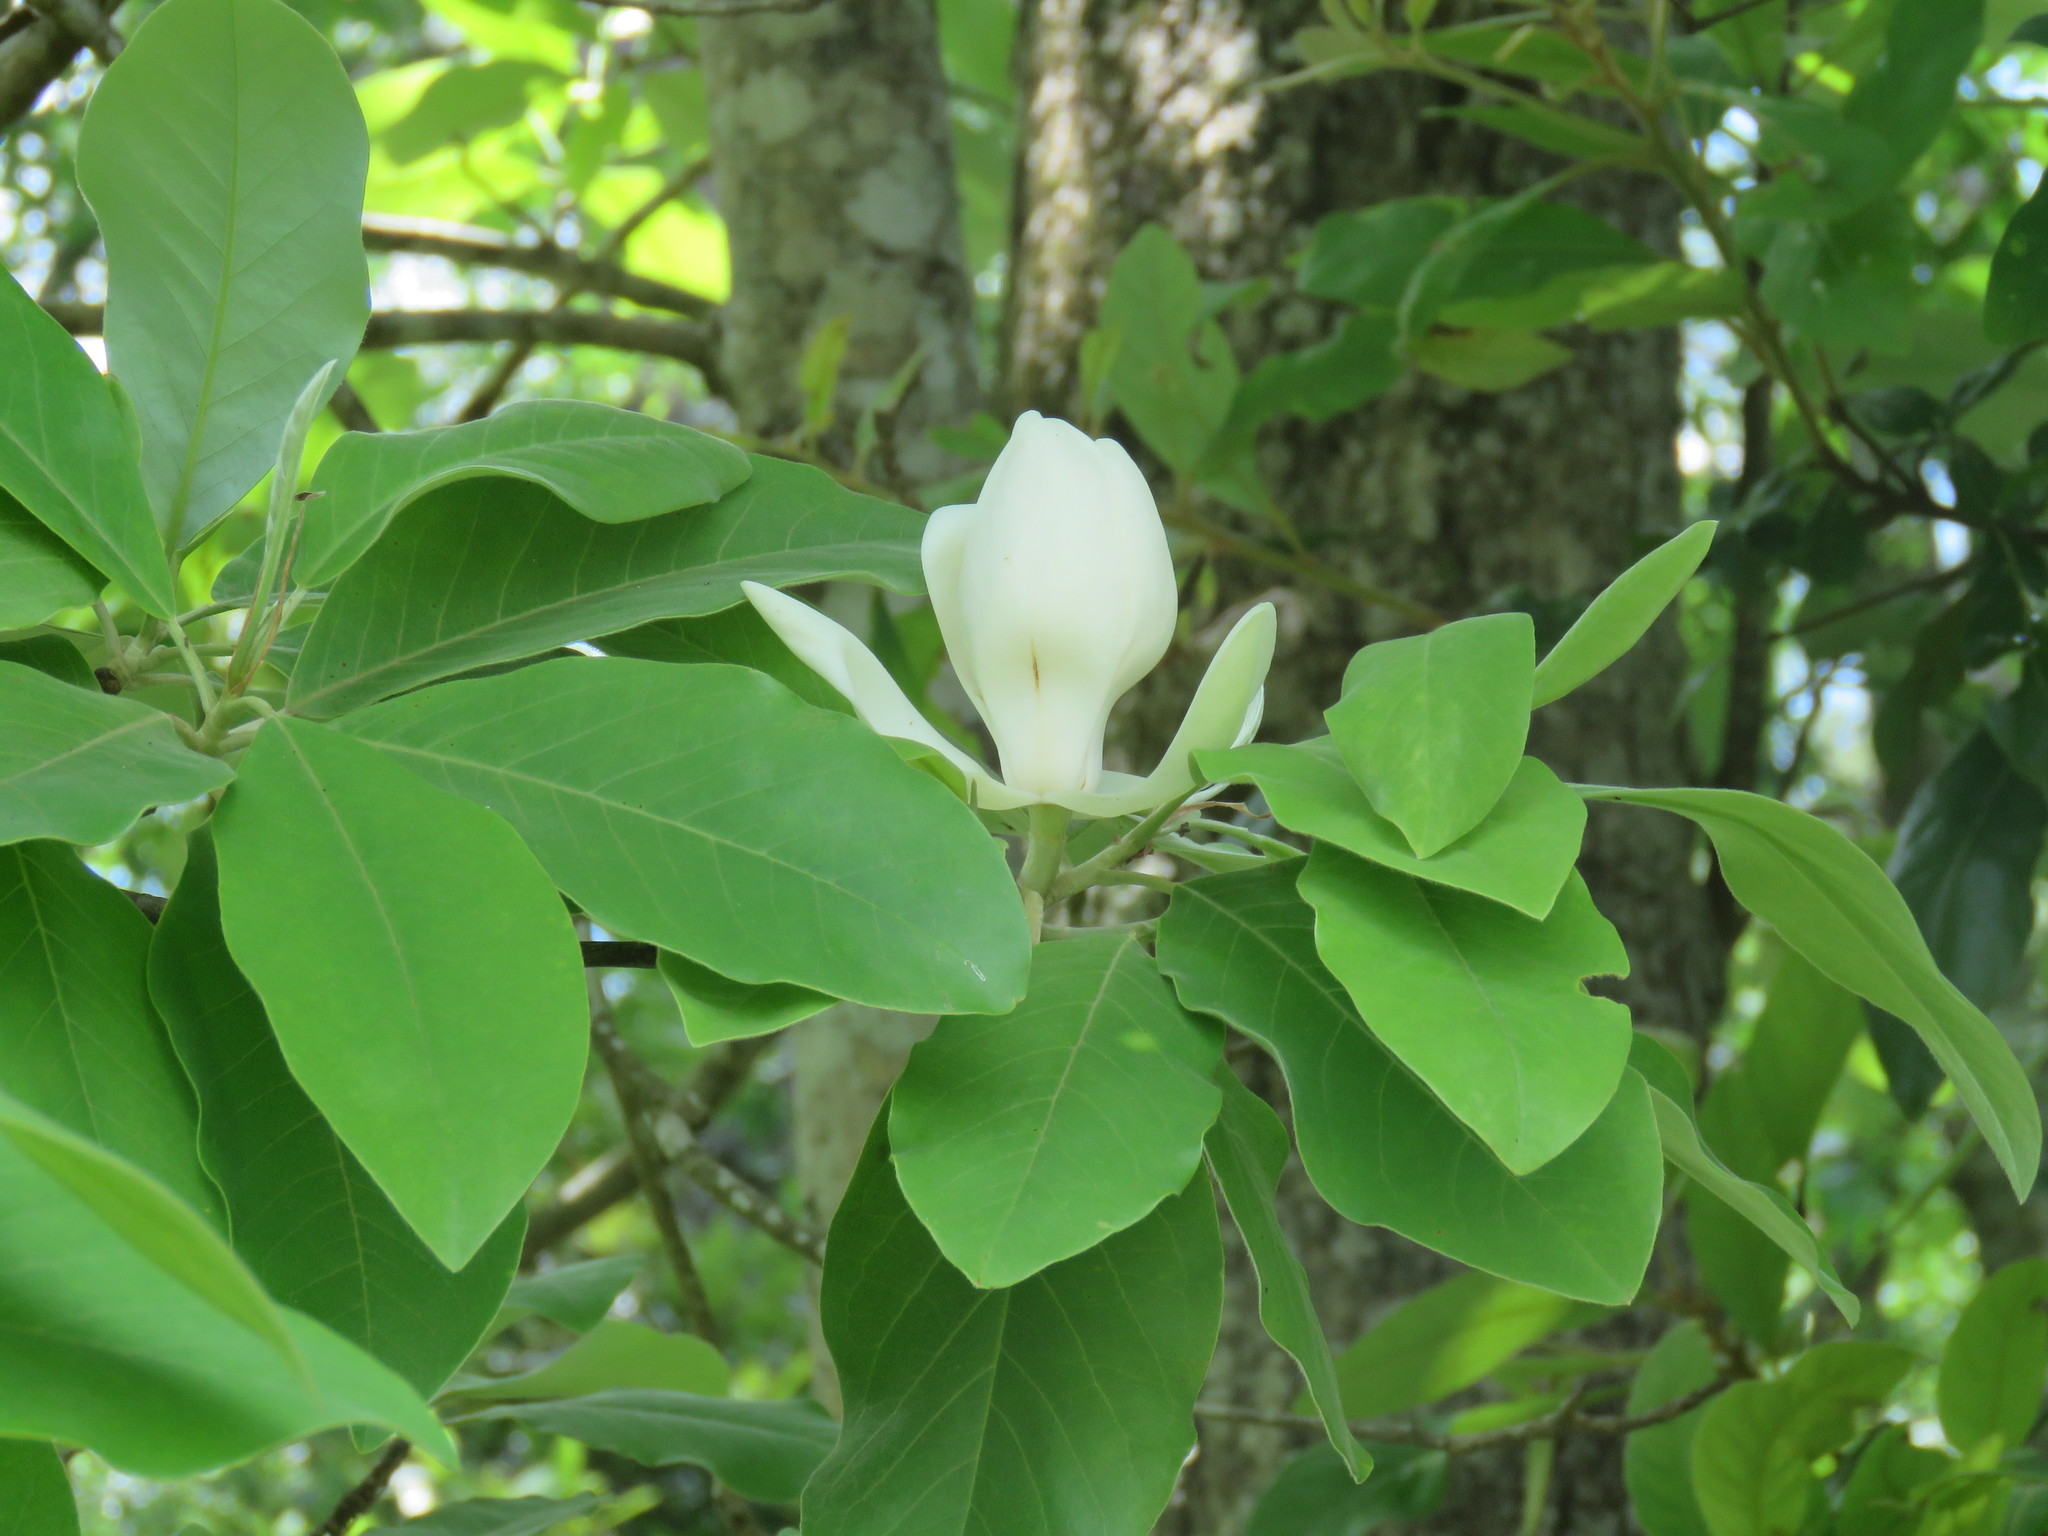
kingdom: Plantae
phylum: Tracheophyta
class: Magnoliopsida
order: Magnoliales
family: Magnoliaceae
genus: Magnolia
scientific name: Magnolia virginiana
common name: Swamp bay
